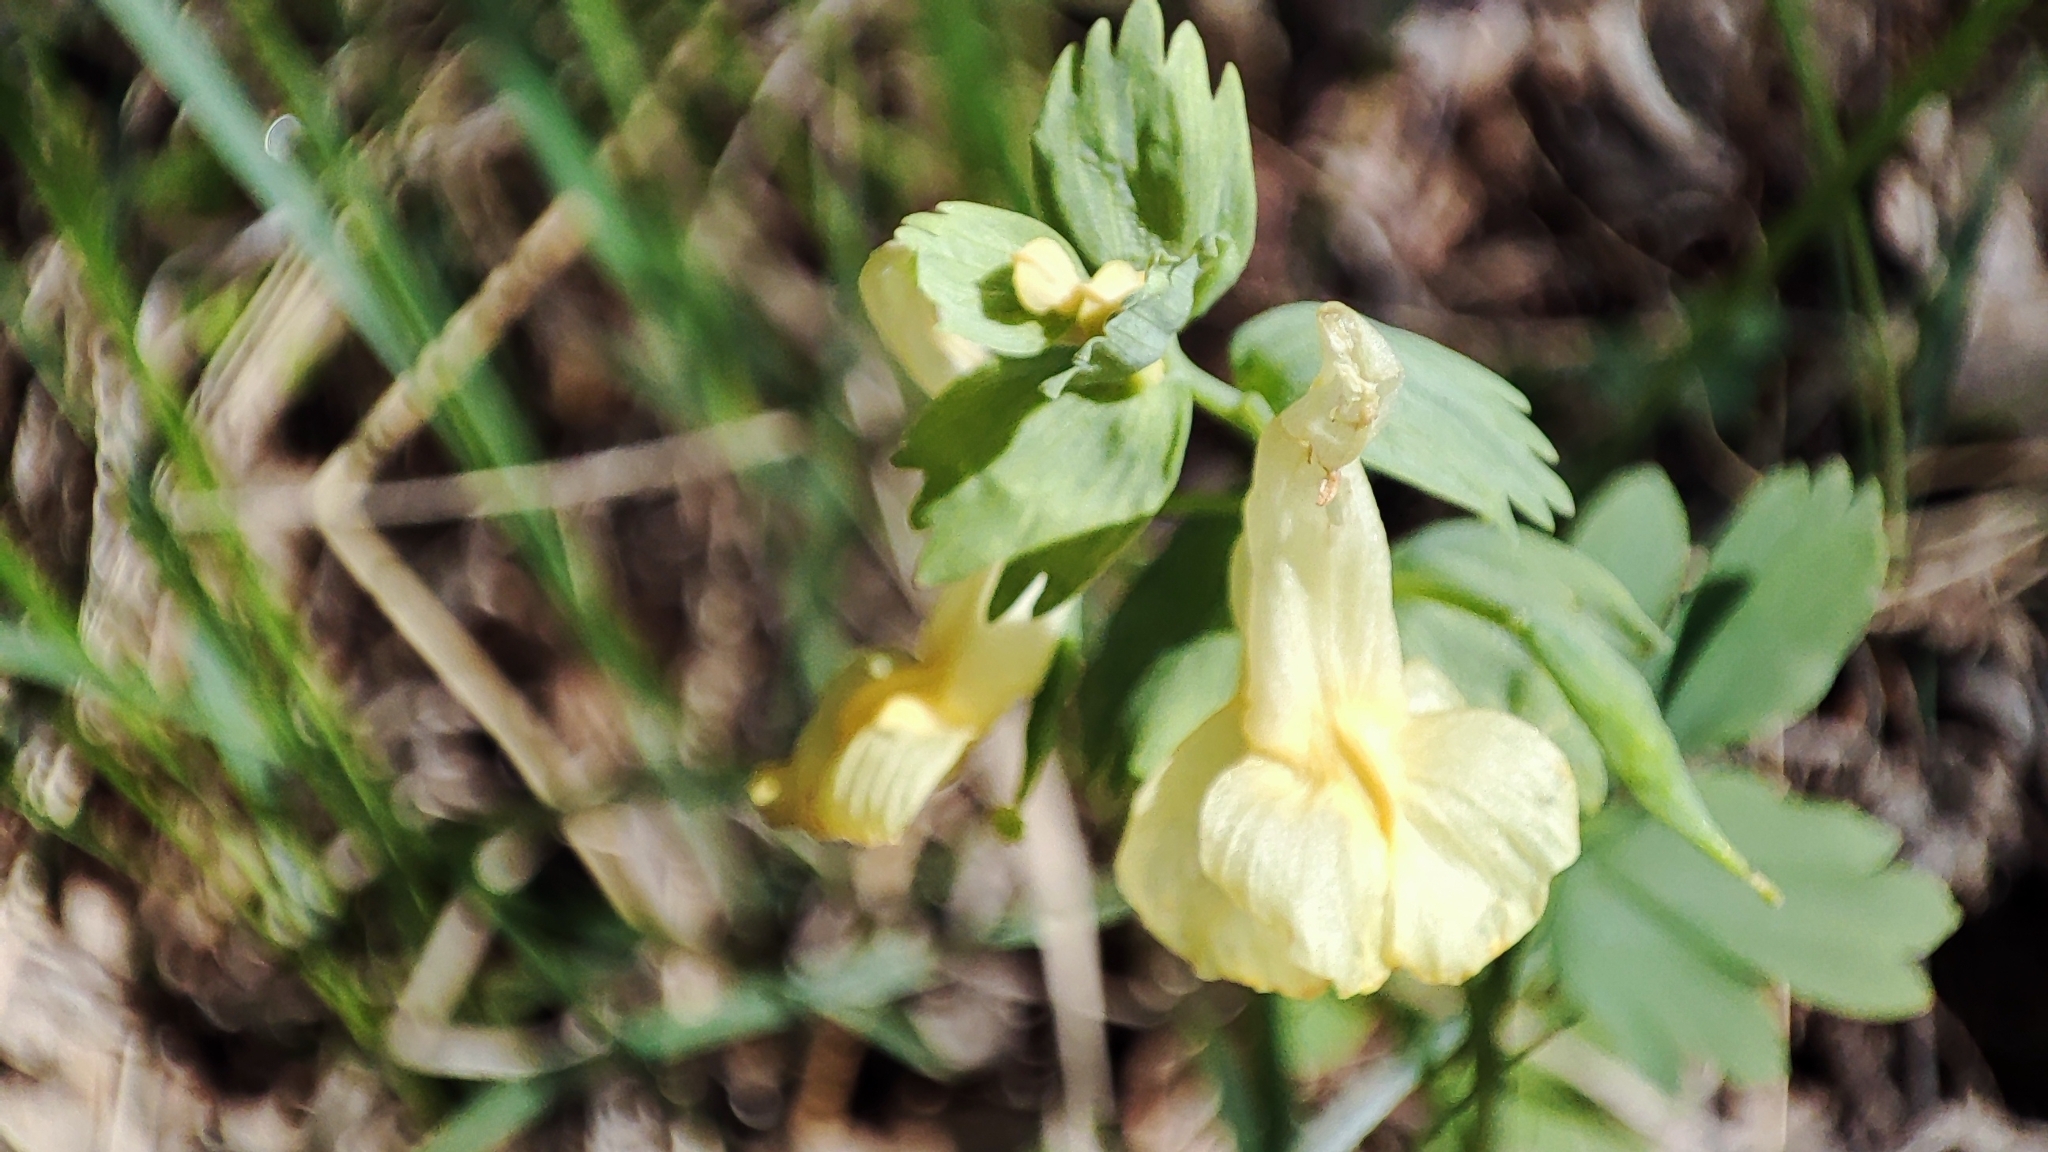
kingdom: Plantae
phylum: Tracheophyta
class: Magnoliopsida
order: Ranunculales
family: Papaveraceae
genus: Corydalis
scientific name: Corydalis bracteata
